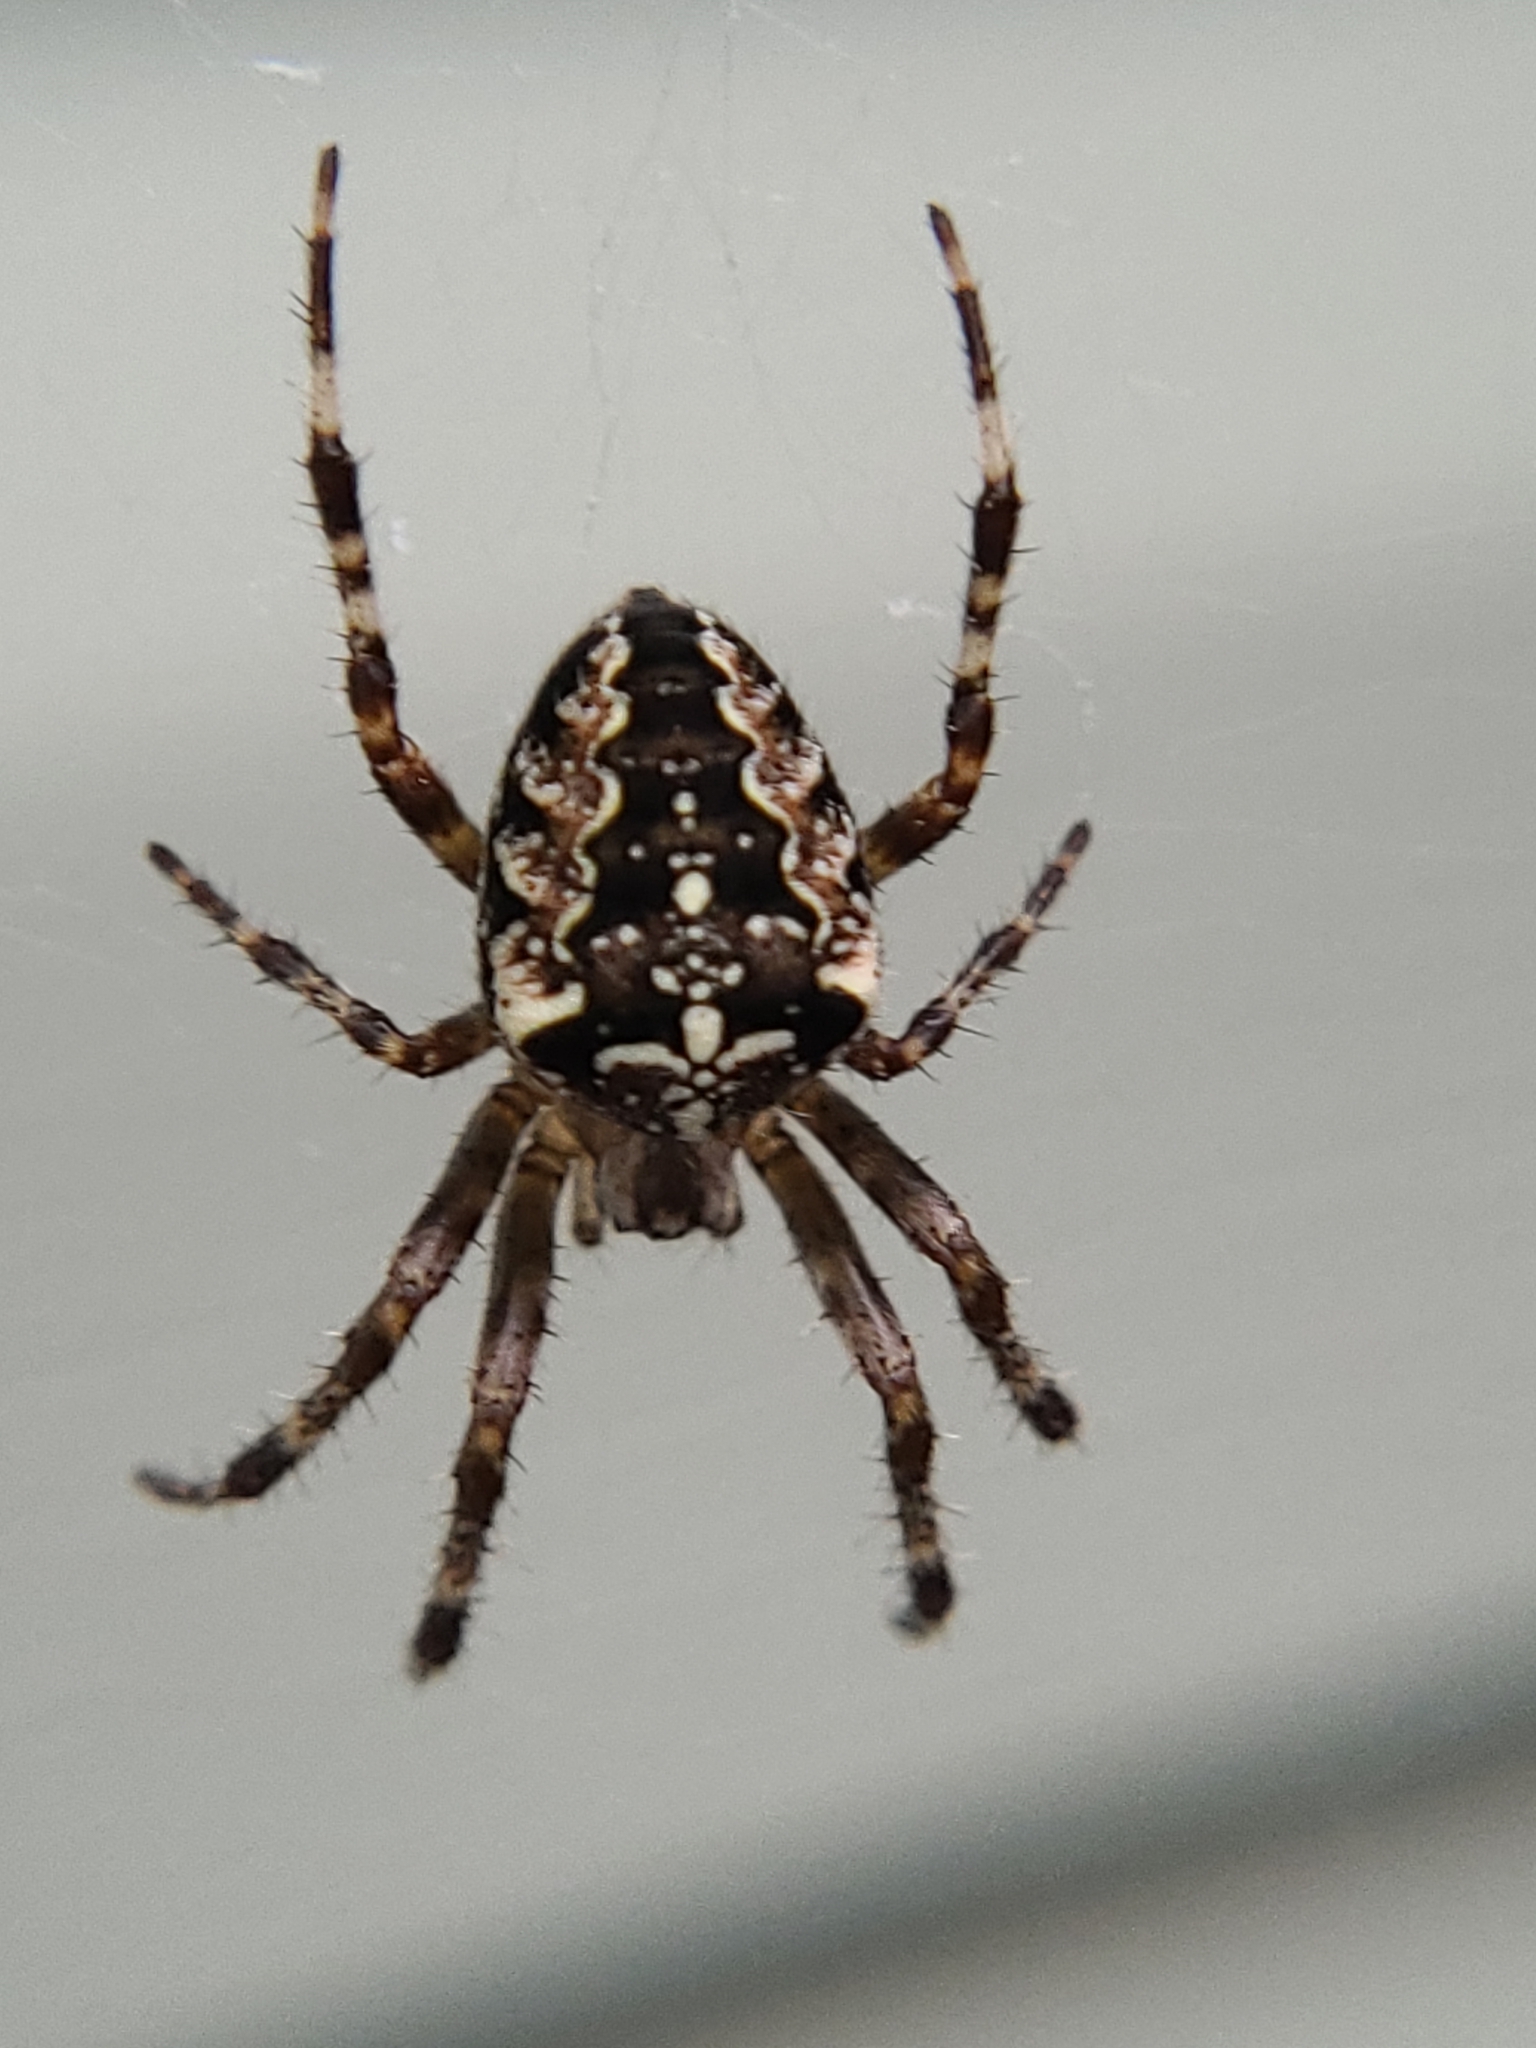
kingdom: Animalia
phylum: Arthropoda
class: Arachnida
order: Araneae
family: Araneidae
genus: Araneus
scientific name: Araneus diadematus
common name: Cross orbweaver
